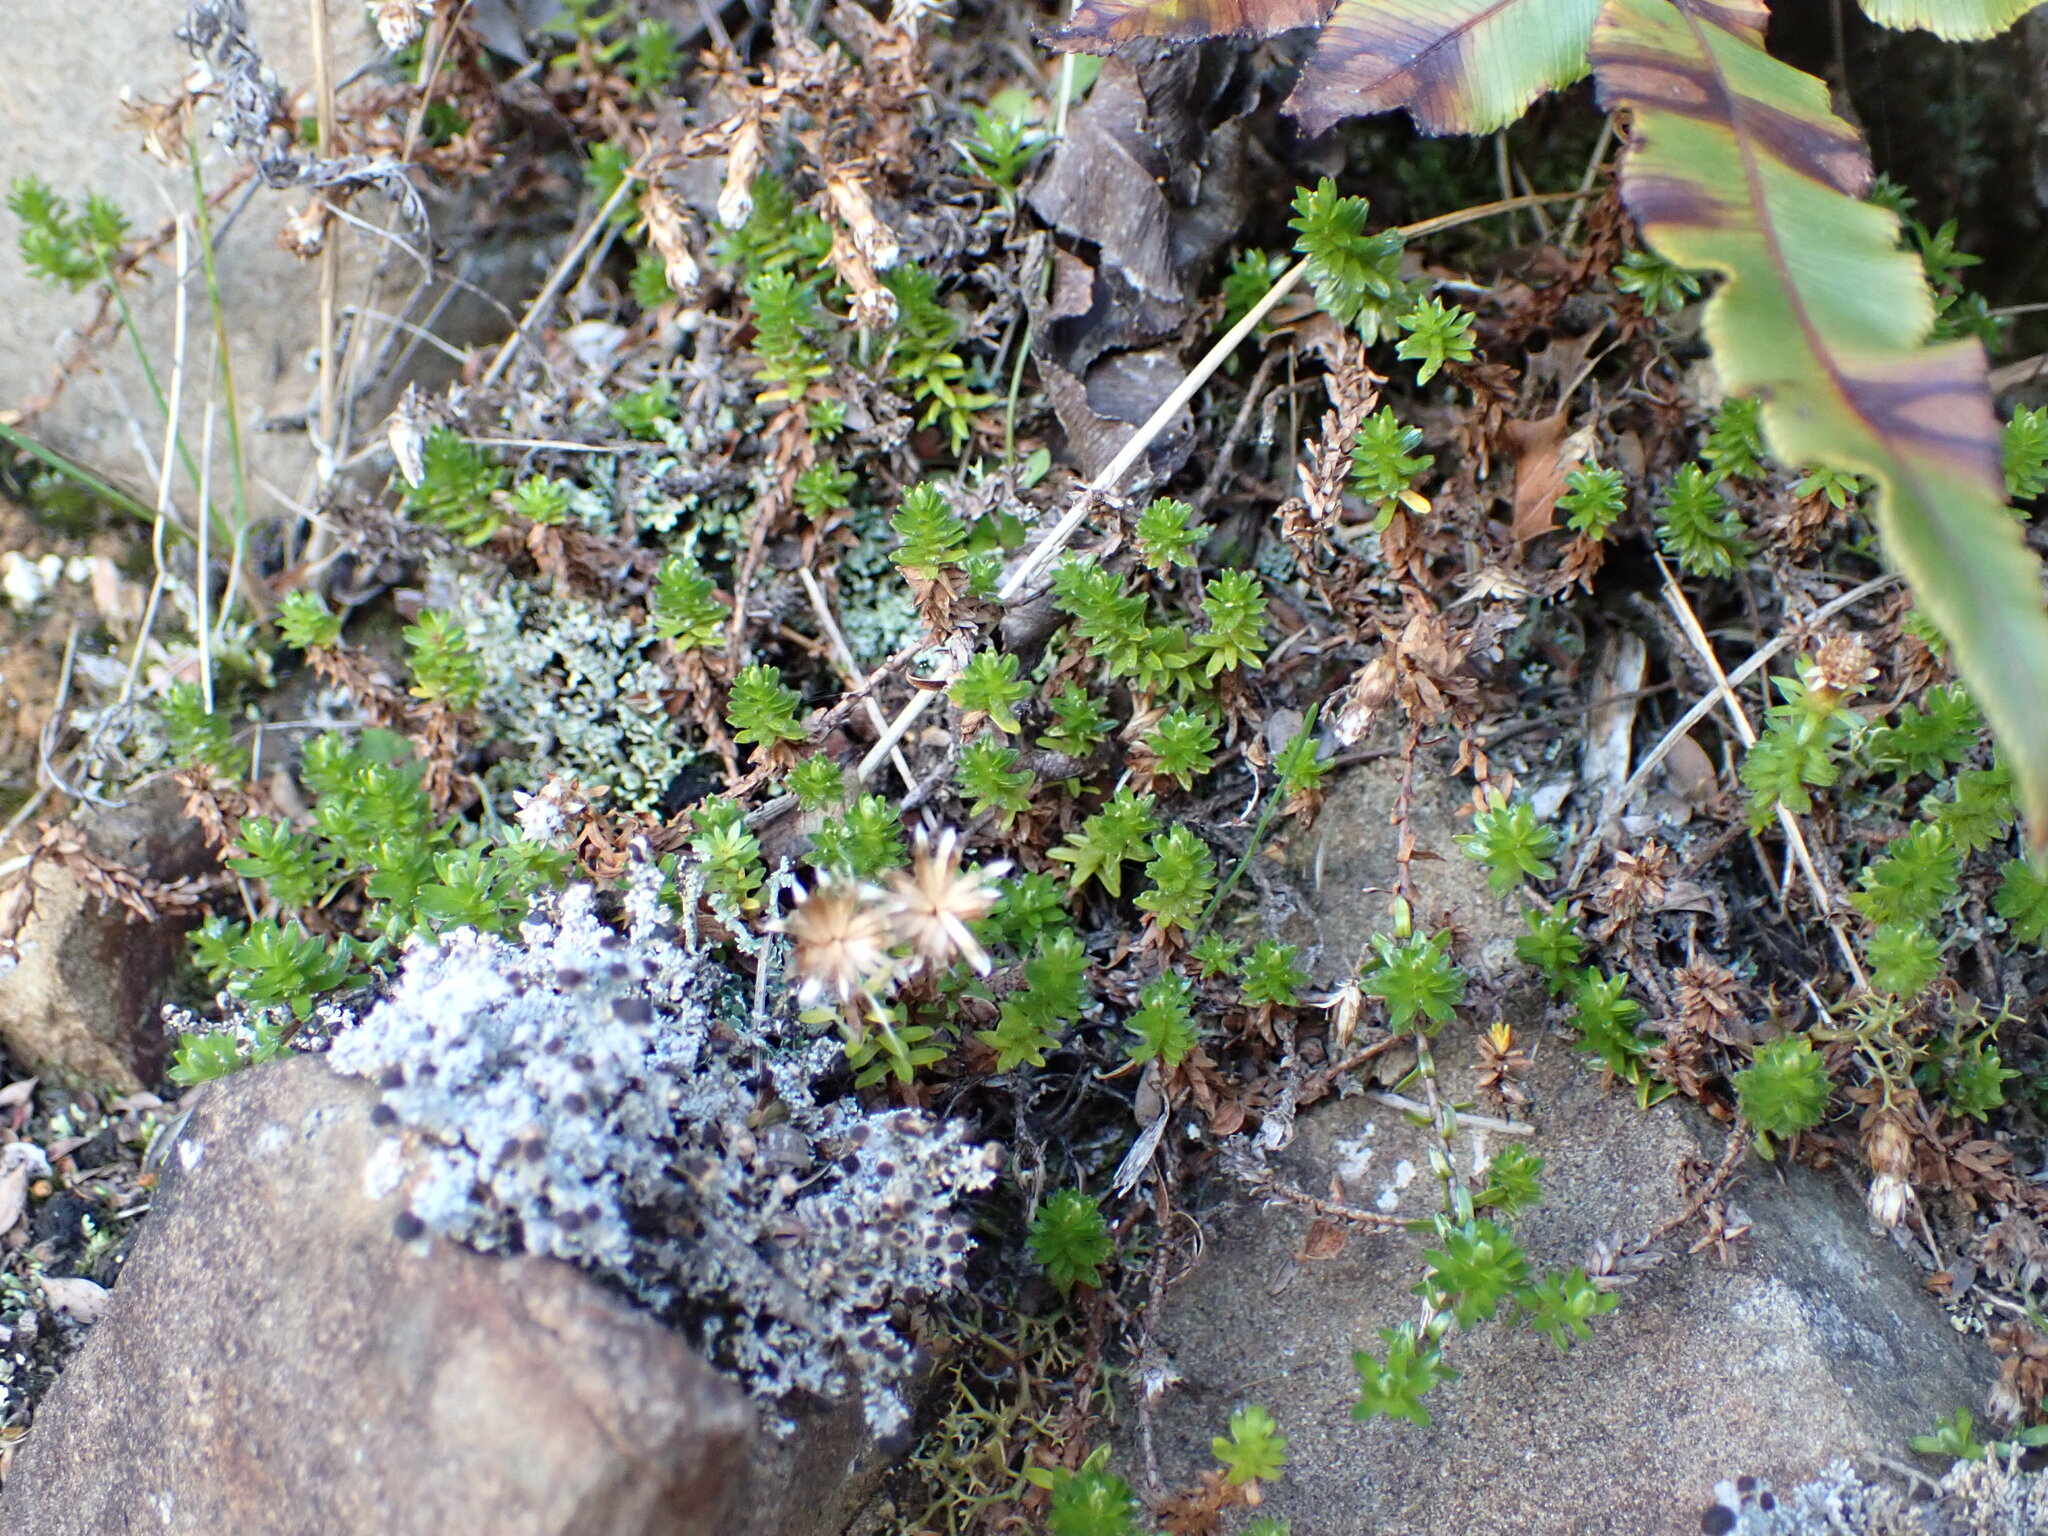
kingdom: Plantae
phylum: Tracheophyta
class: Magnoliopsida
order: Asterales
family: Asteraceae
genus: Raoulia
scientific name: Raoulia glabra
